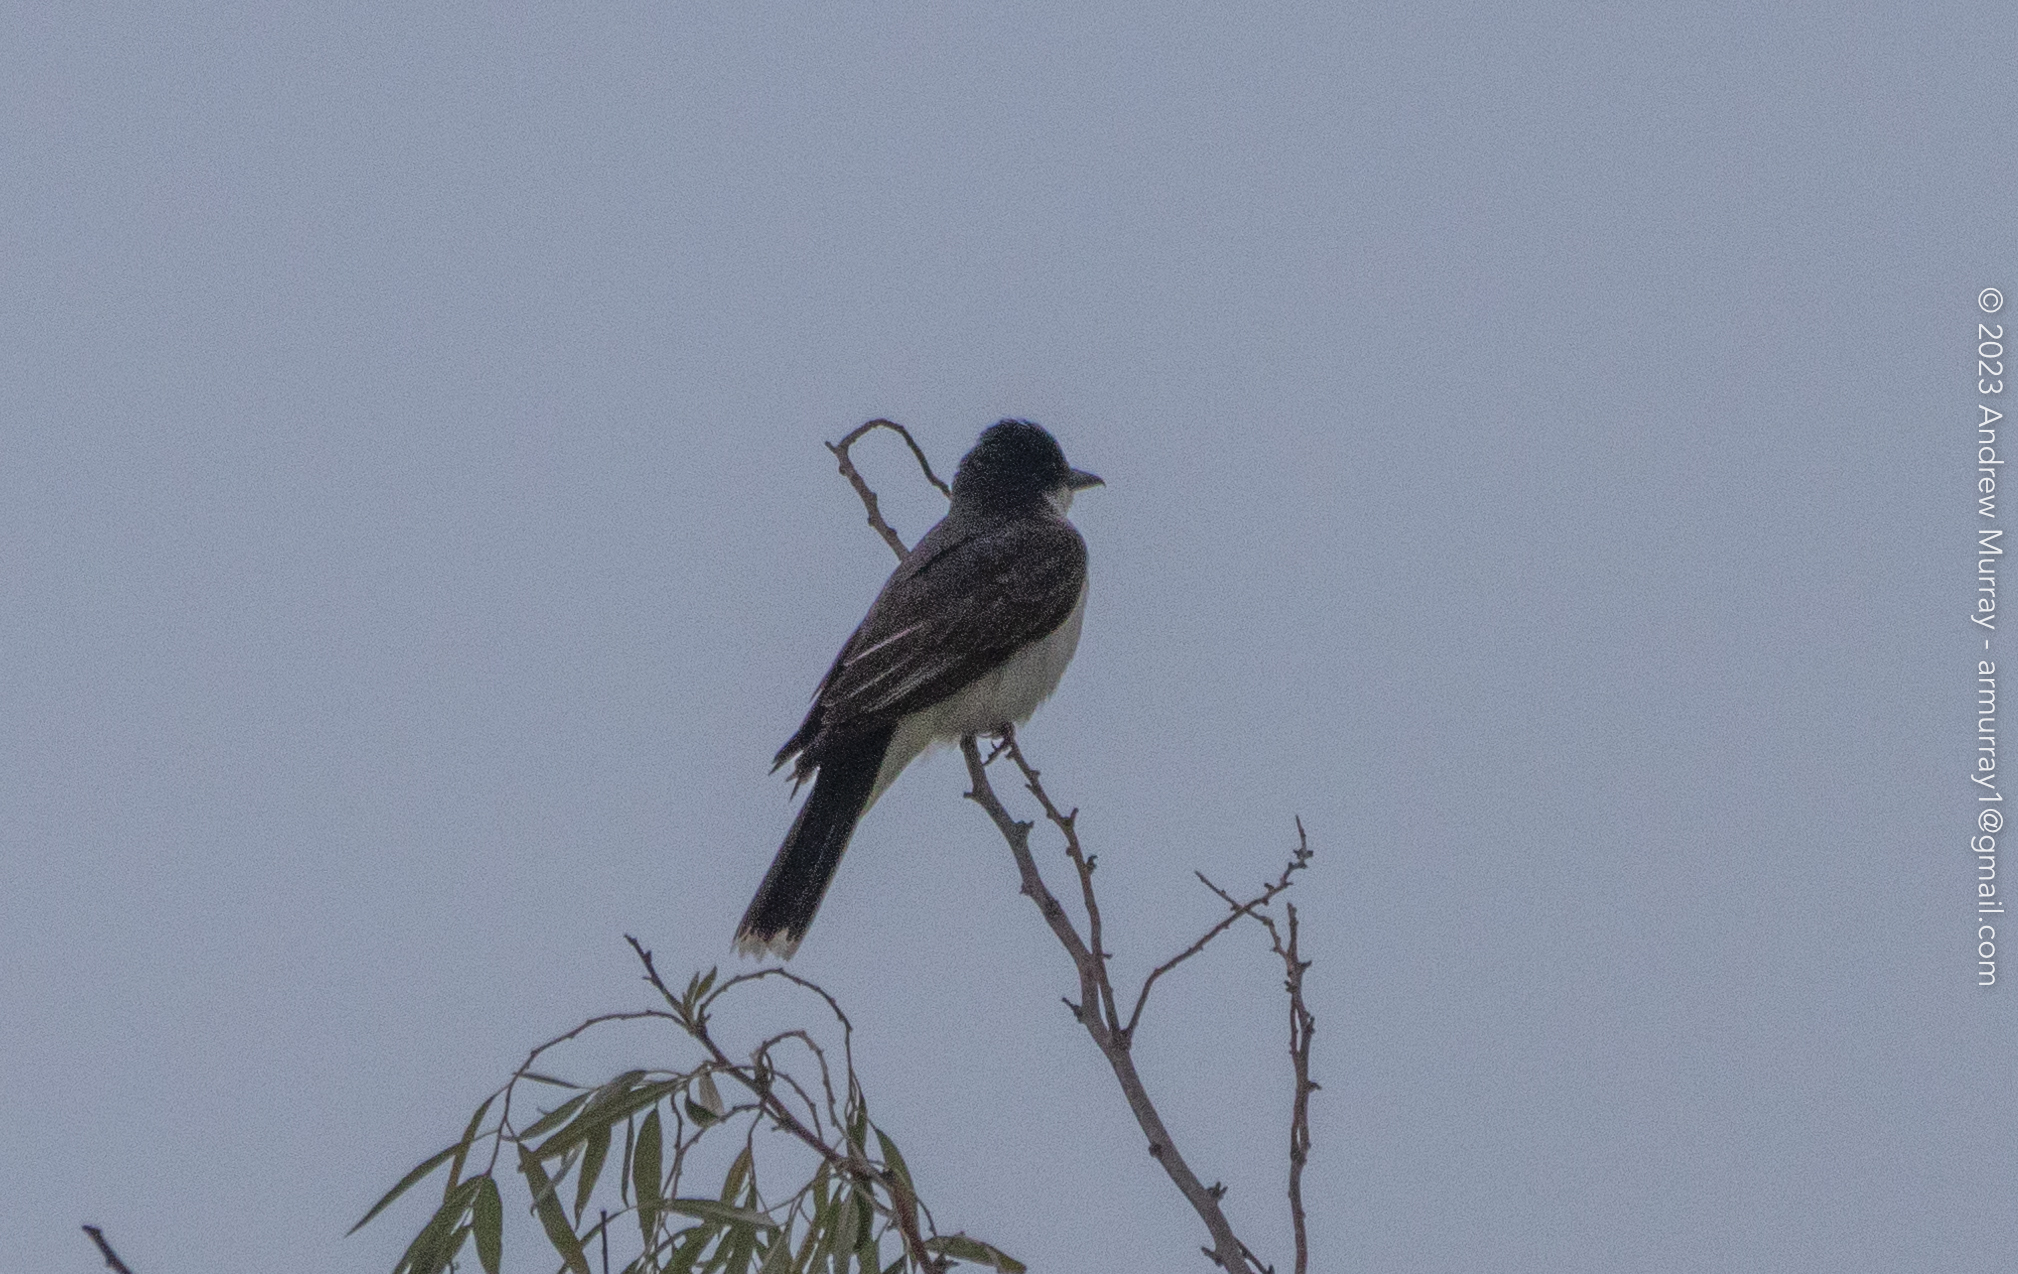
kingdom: Animalia
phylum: Chordata
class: Aves
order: Passeriformes
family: Tyrannidae
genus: Tyrannus
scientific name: Tyrannus tyrannus
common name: Eastern kingbird
